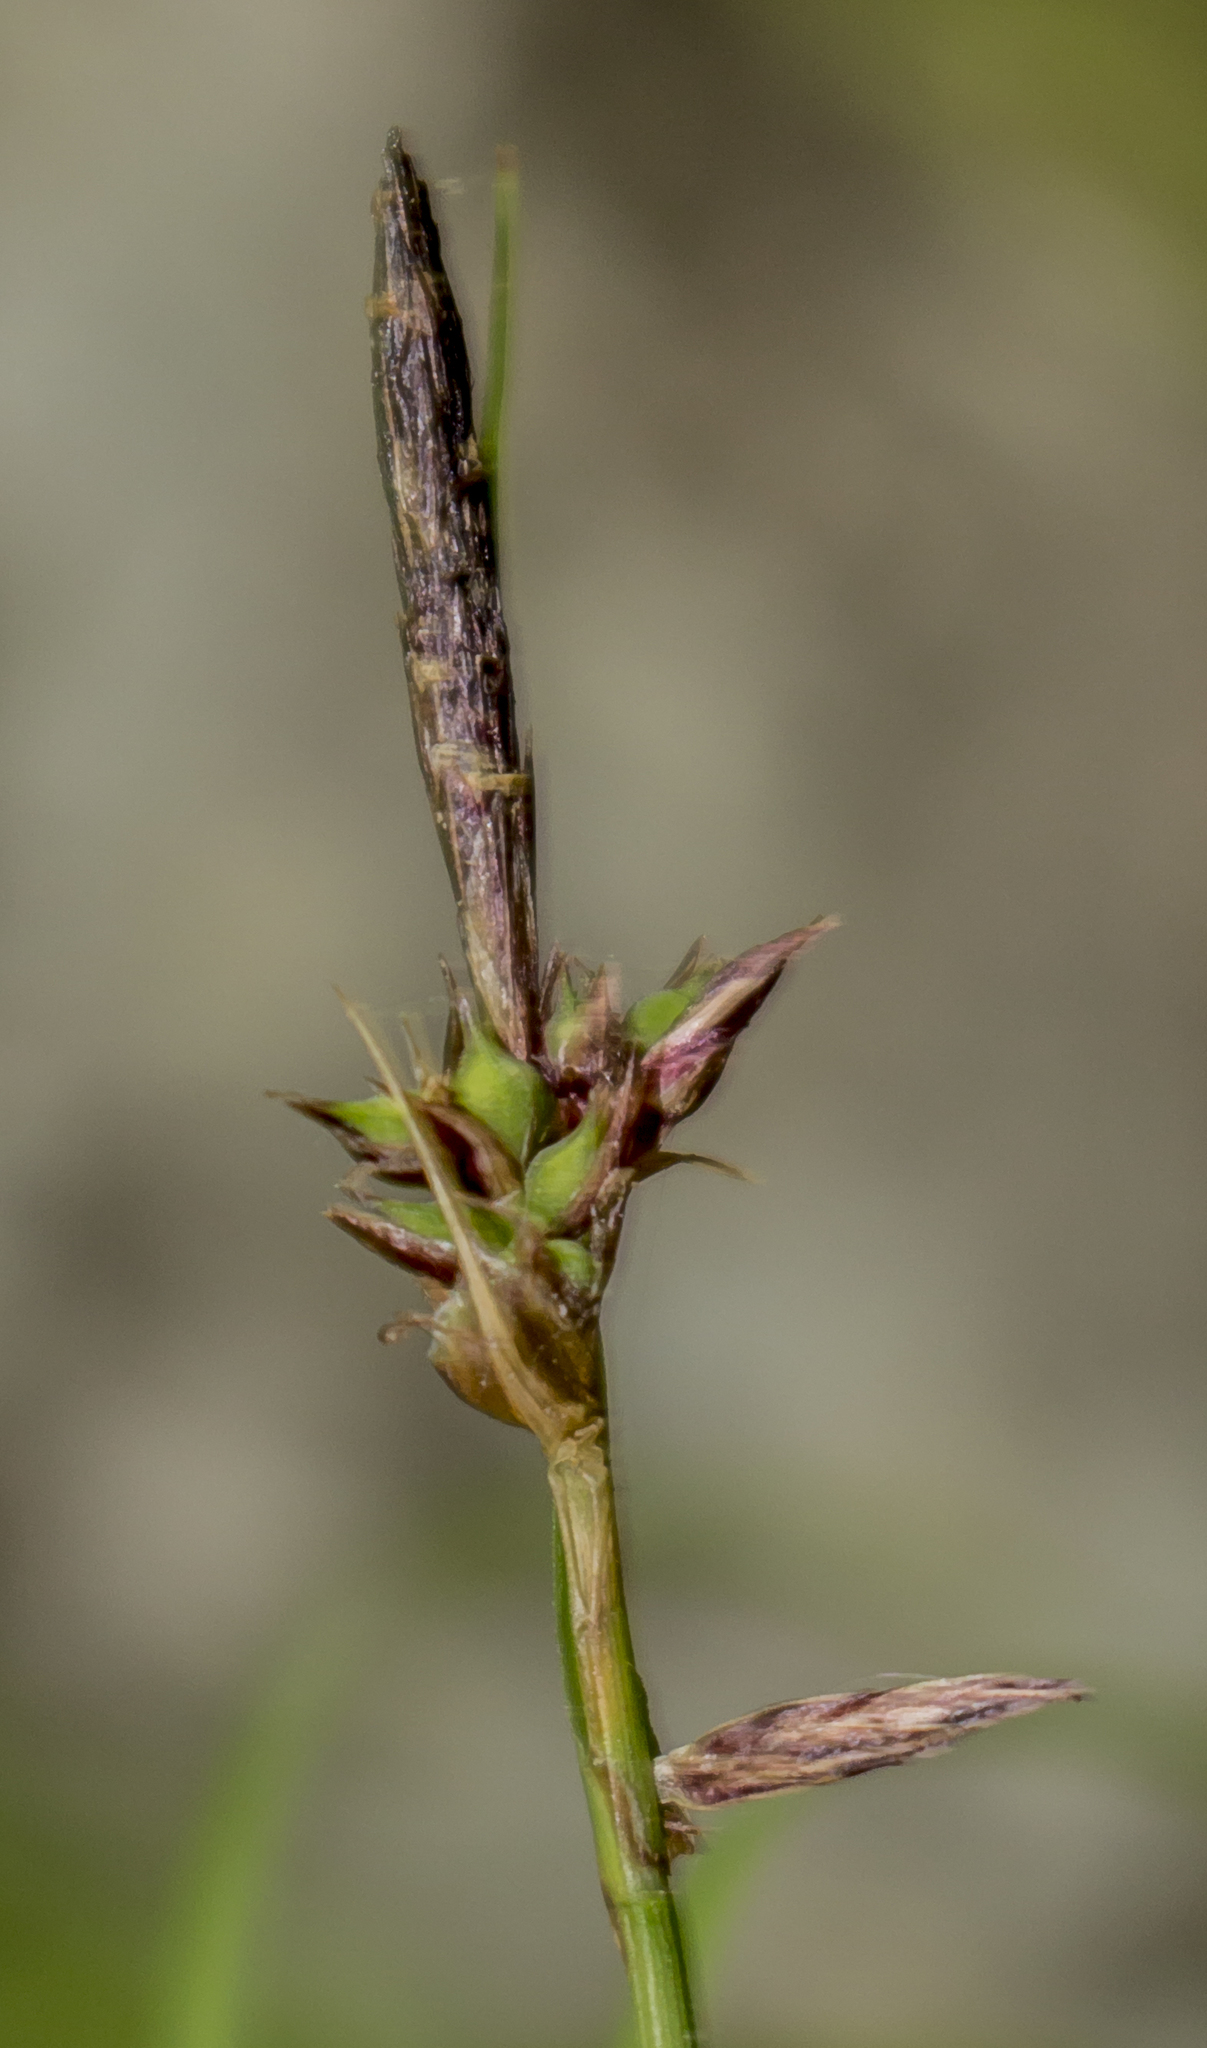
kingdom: Plantae
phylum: Tracheophyta
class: Liliopsida
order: Poales
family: Cyperaceae
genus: Carex
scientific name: Carex pensylvanica
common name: Common oak sedge
